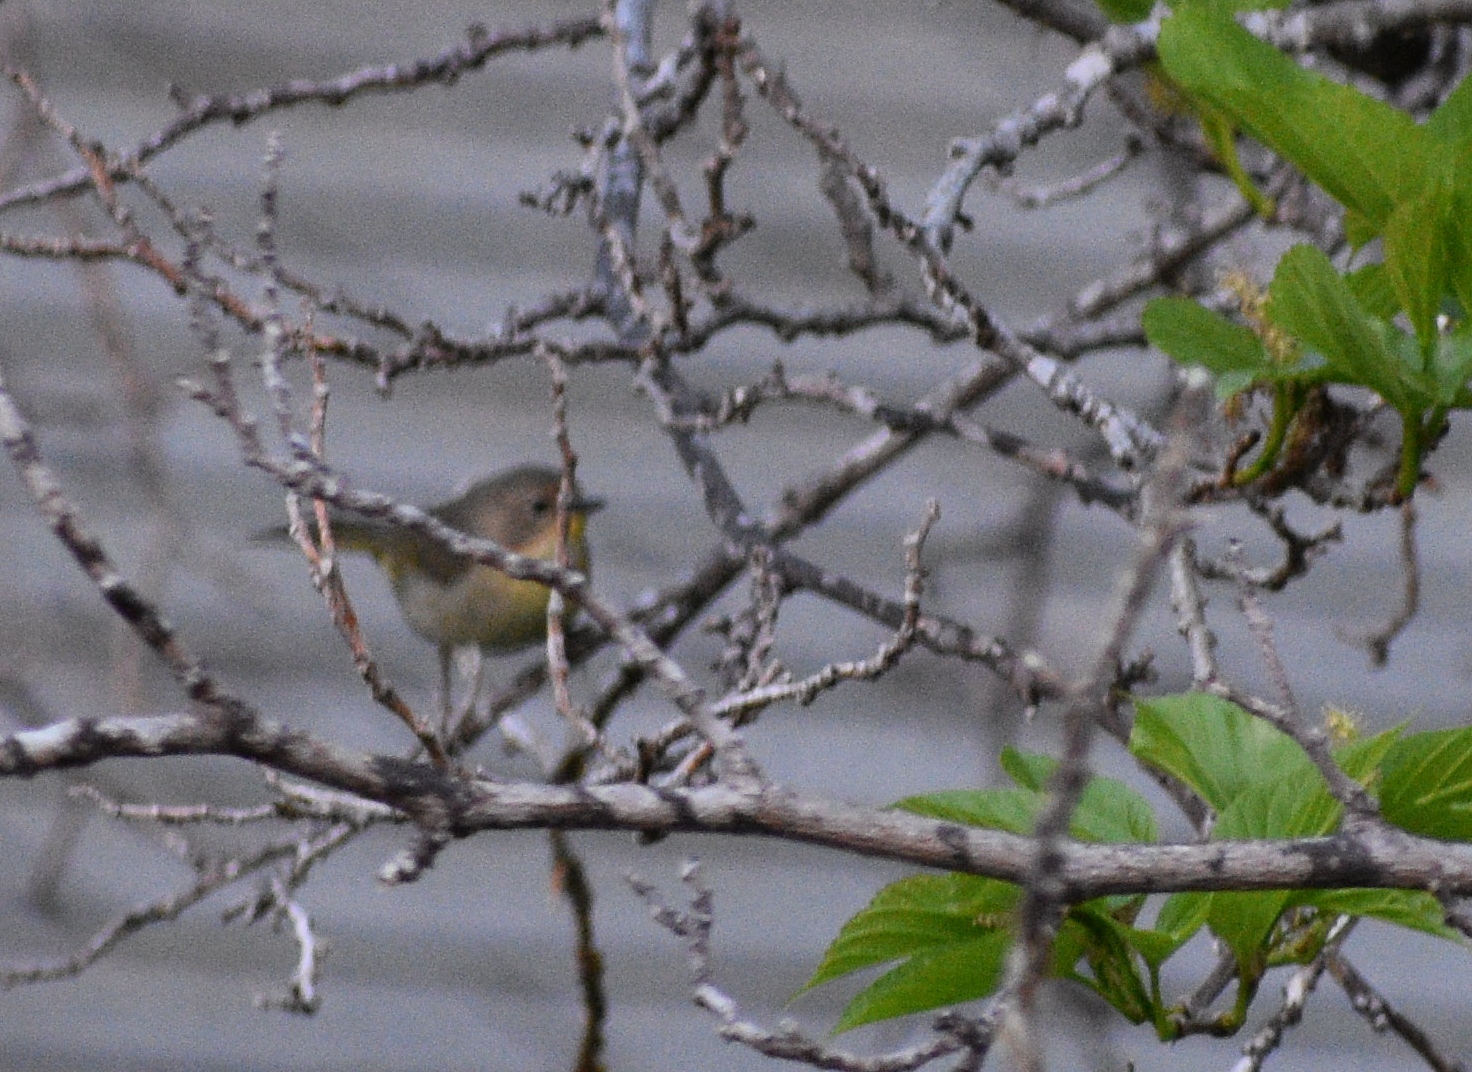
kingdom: Animalia
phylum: Chordata
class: Aves
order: Passeriformes
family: Parulidae
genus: Geothlypis
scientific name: Geothlypis trichas
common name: Common yellowthroat
